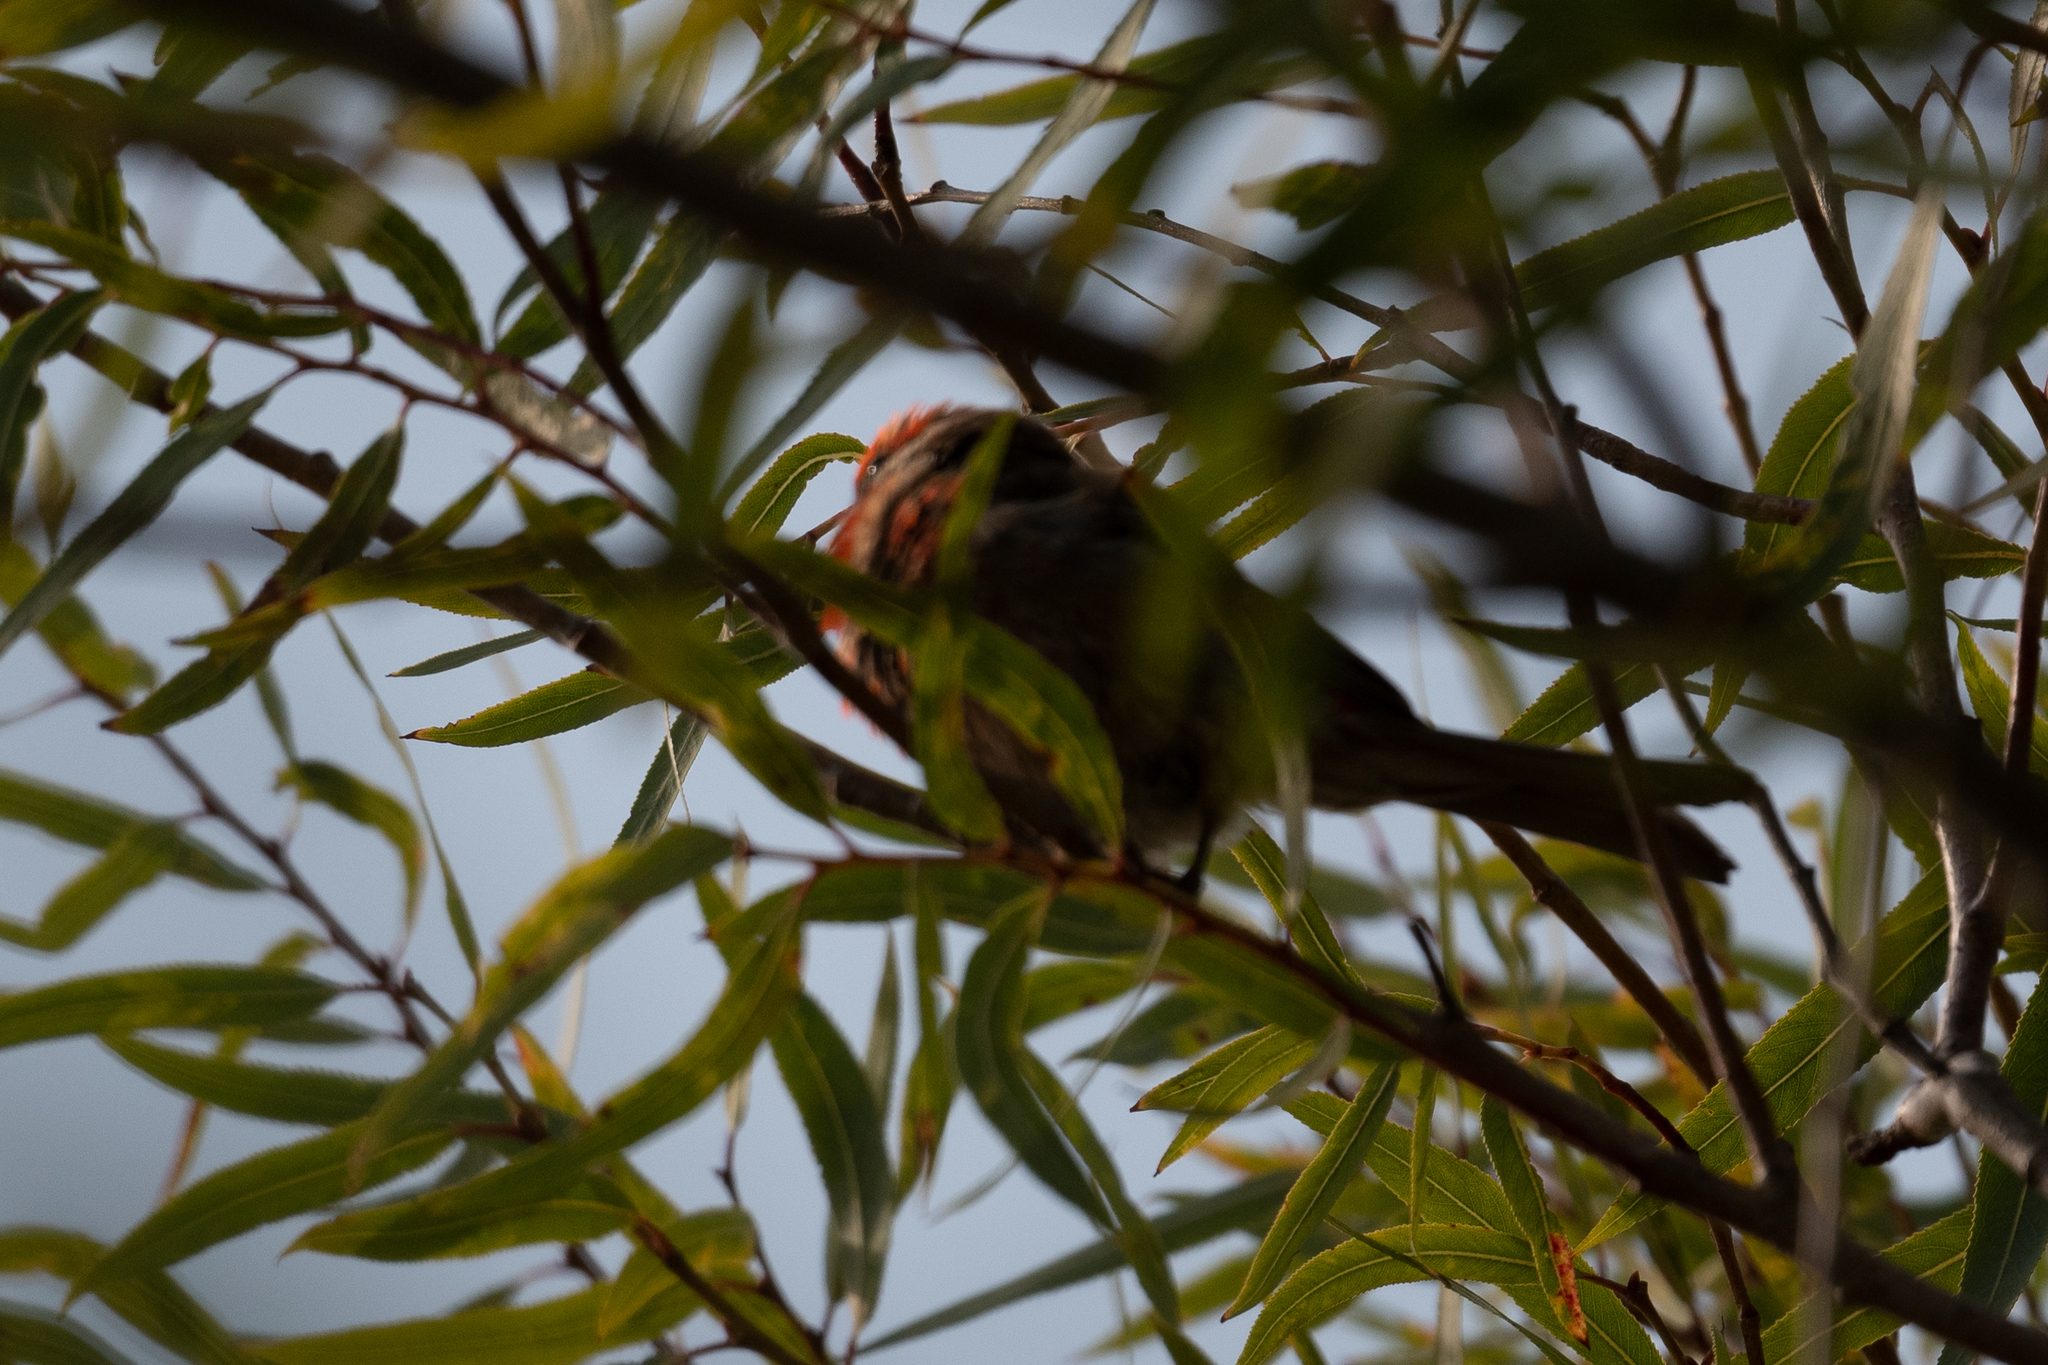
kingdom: Animalia
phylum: Chordata
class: Aves
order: Passeriformes
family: Fringillidae
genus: Haemorhous
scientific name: Haemorhous mexicanus
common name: House finch
